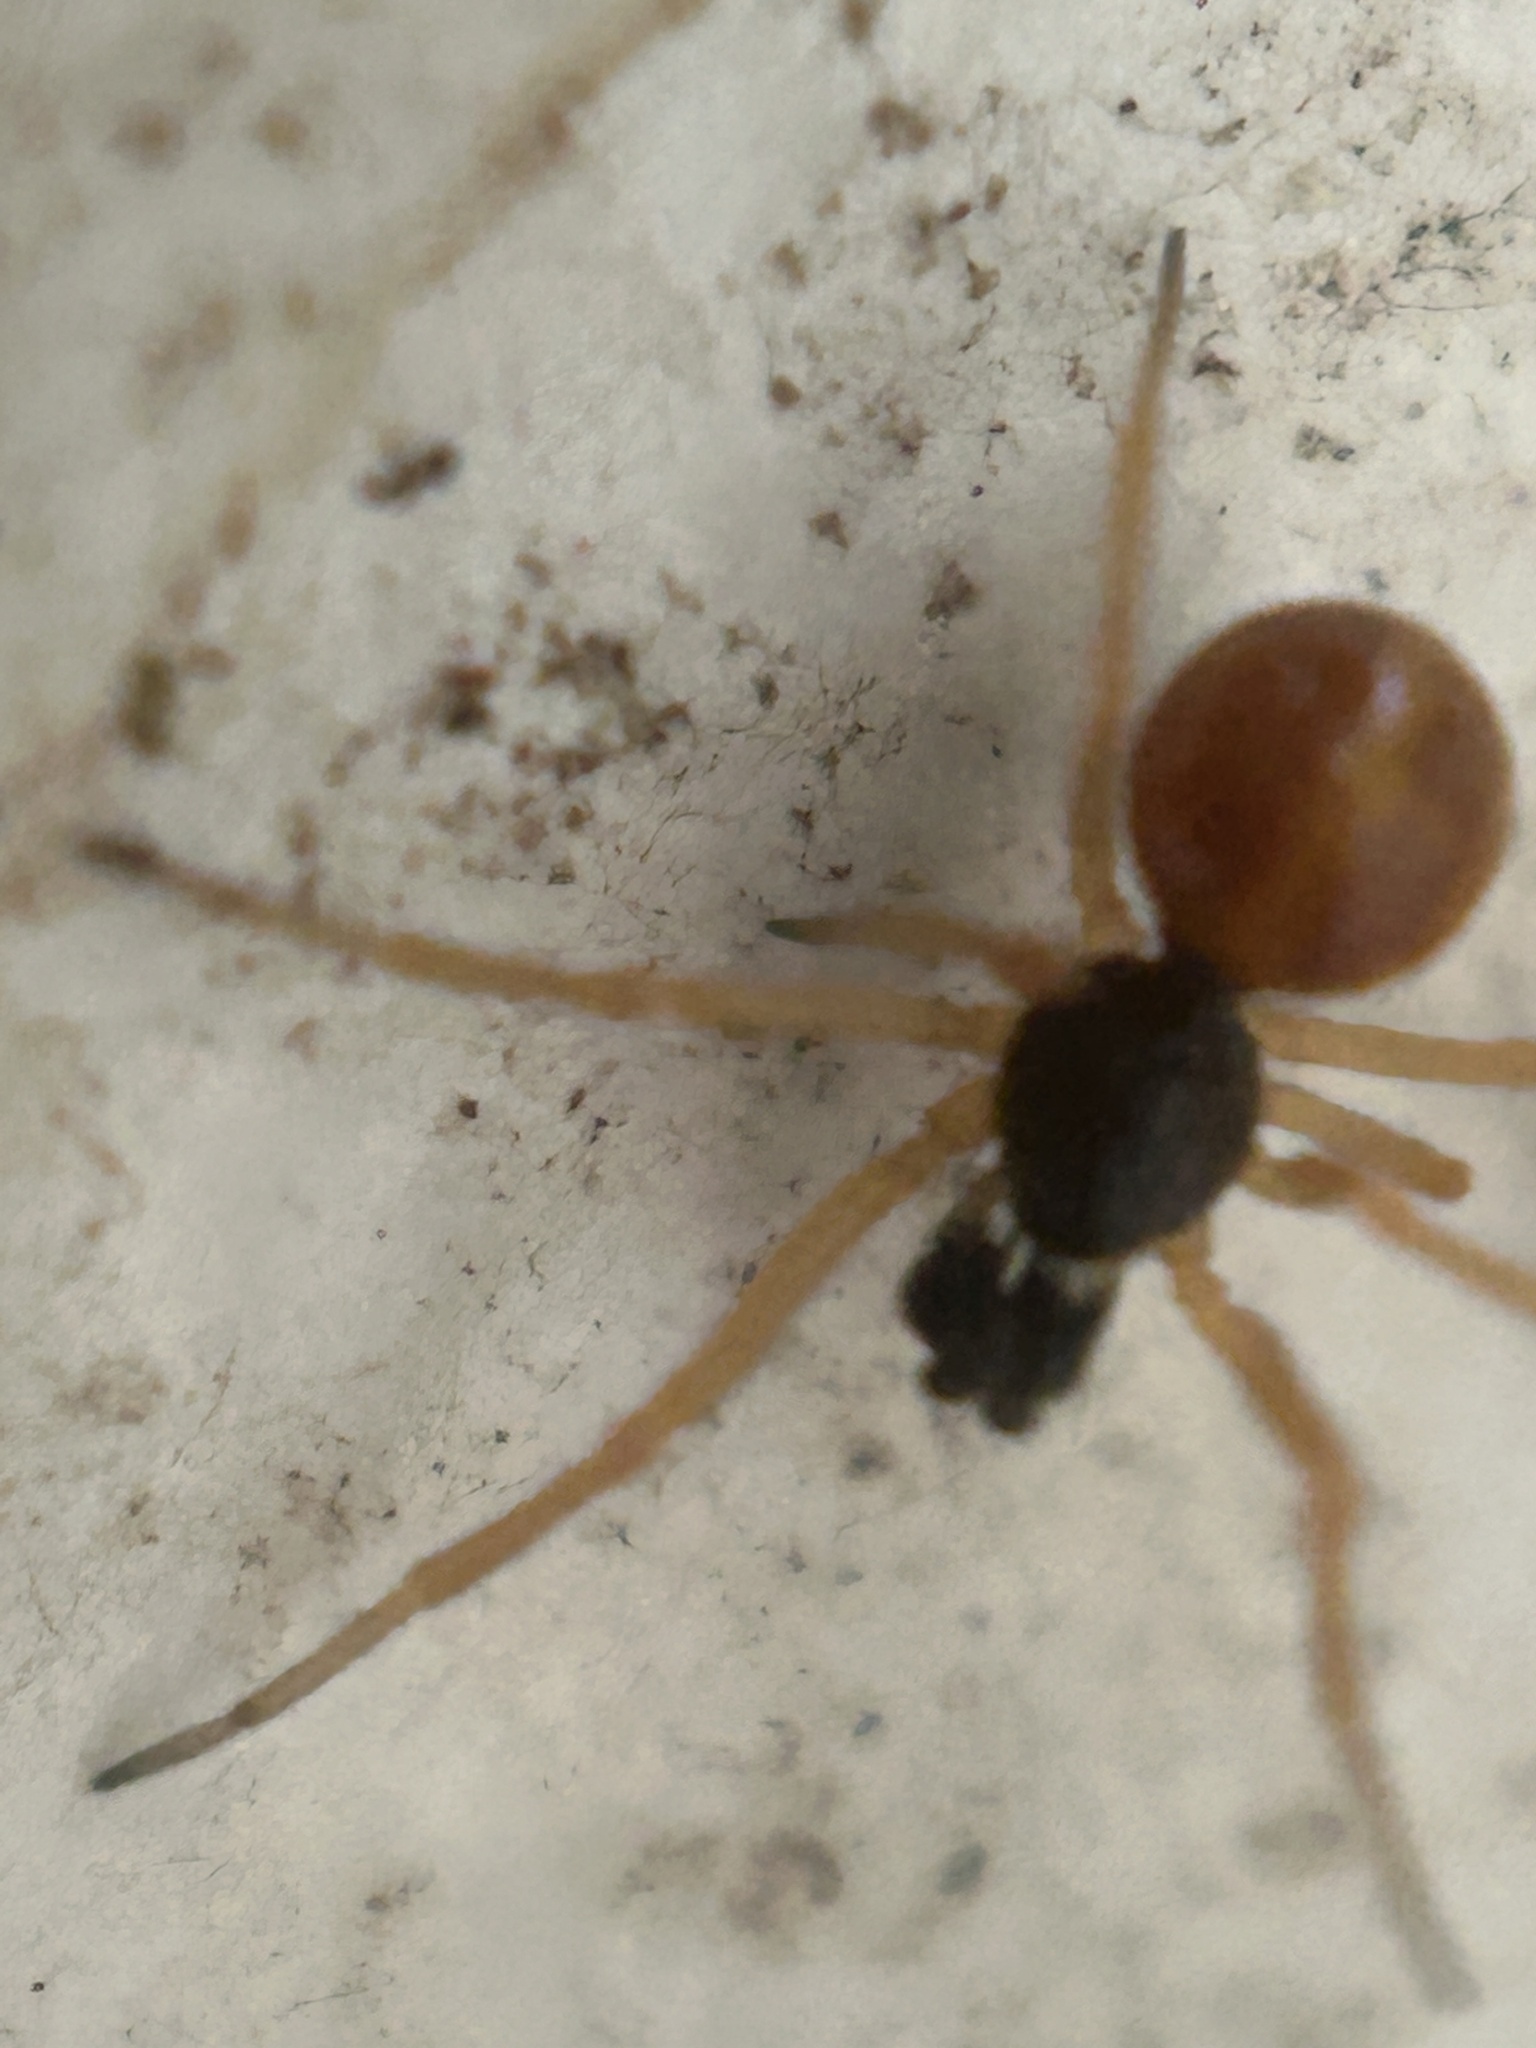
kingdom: Animalia
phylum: Arthropoda
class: Arachnida
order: Araneae
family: Theridiidae
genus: Crustulina
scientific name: Crustulina sticta
